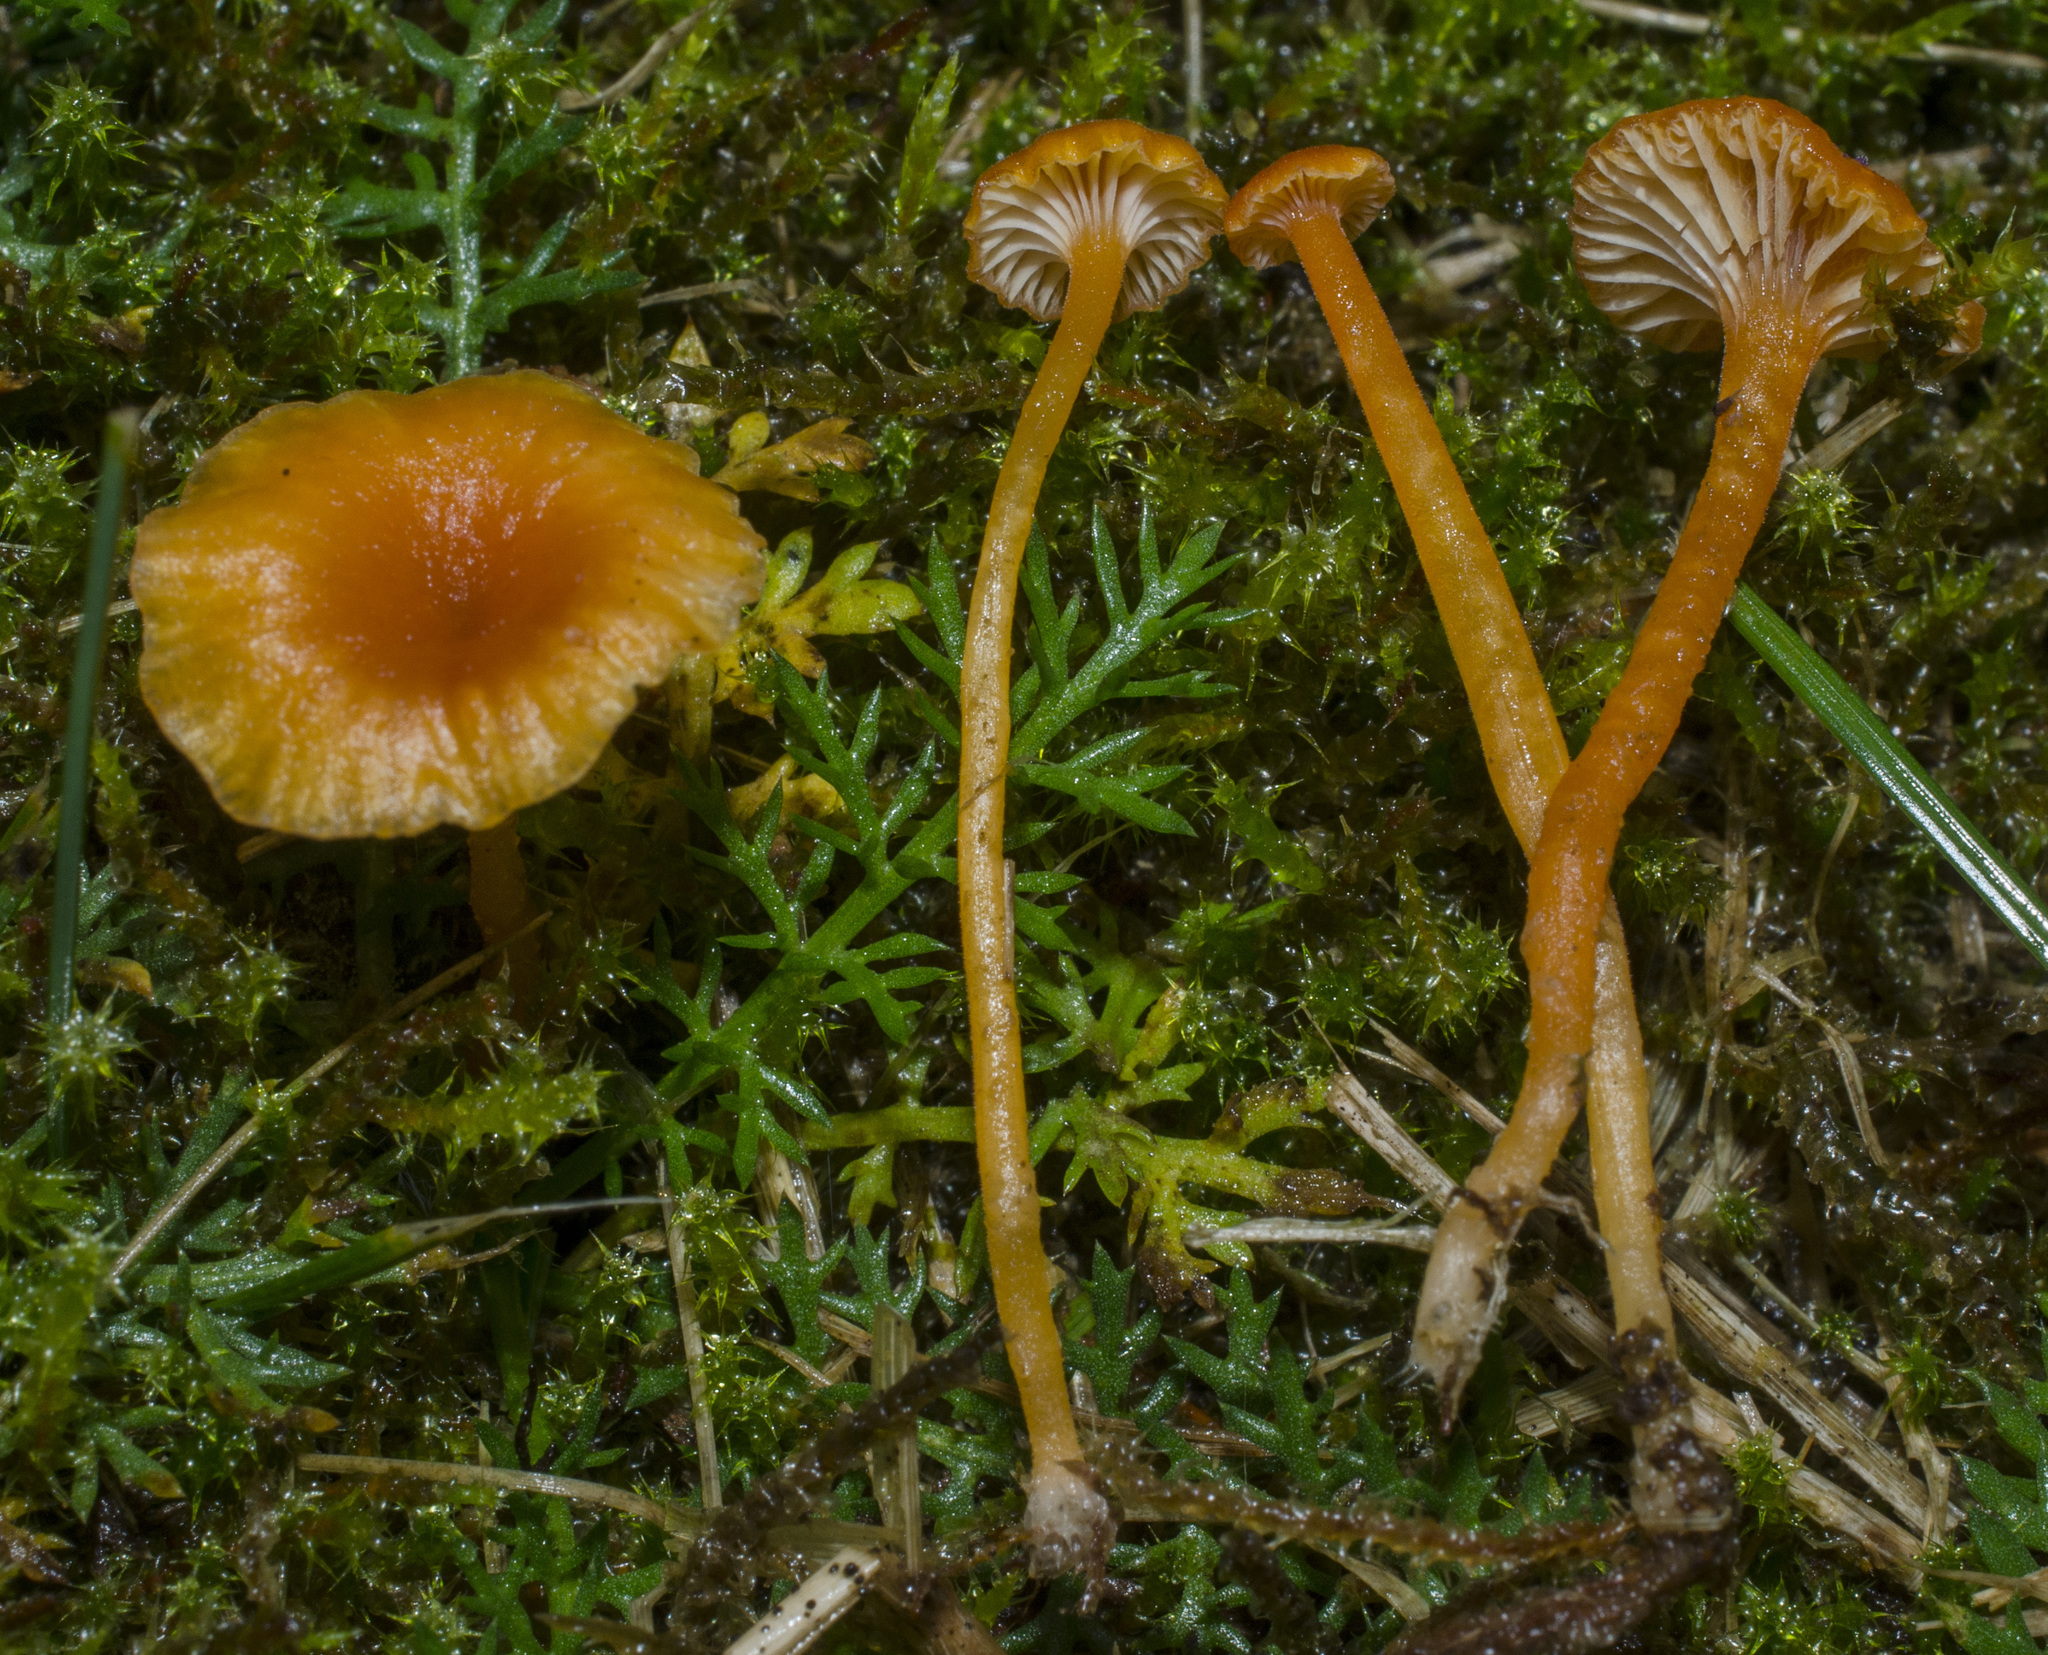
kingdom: Fungi
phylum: Basidiomycota
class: Agaricomycetes
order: Hymenochaetales
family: Rickenellaceae
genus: Rickenella
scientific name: Rickenella fibula
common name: Orange mosscap
